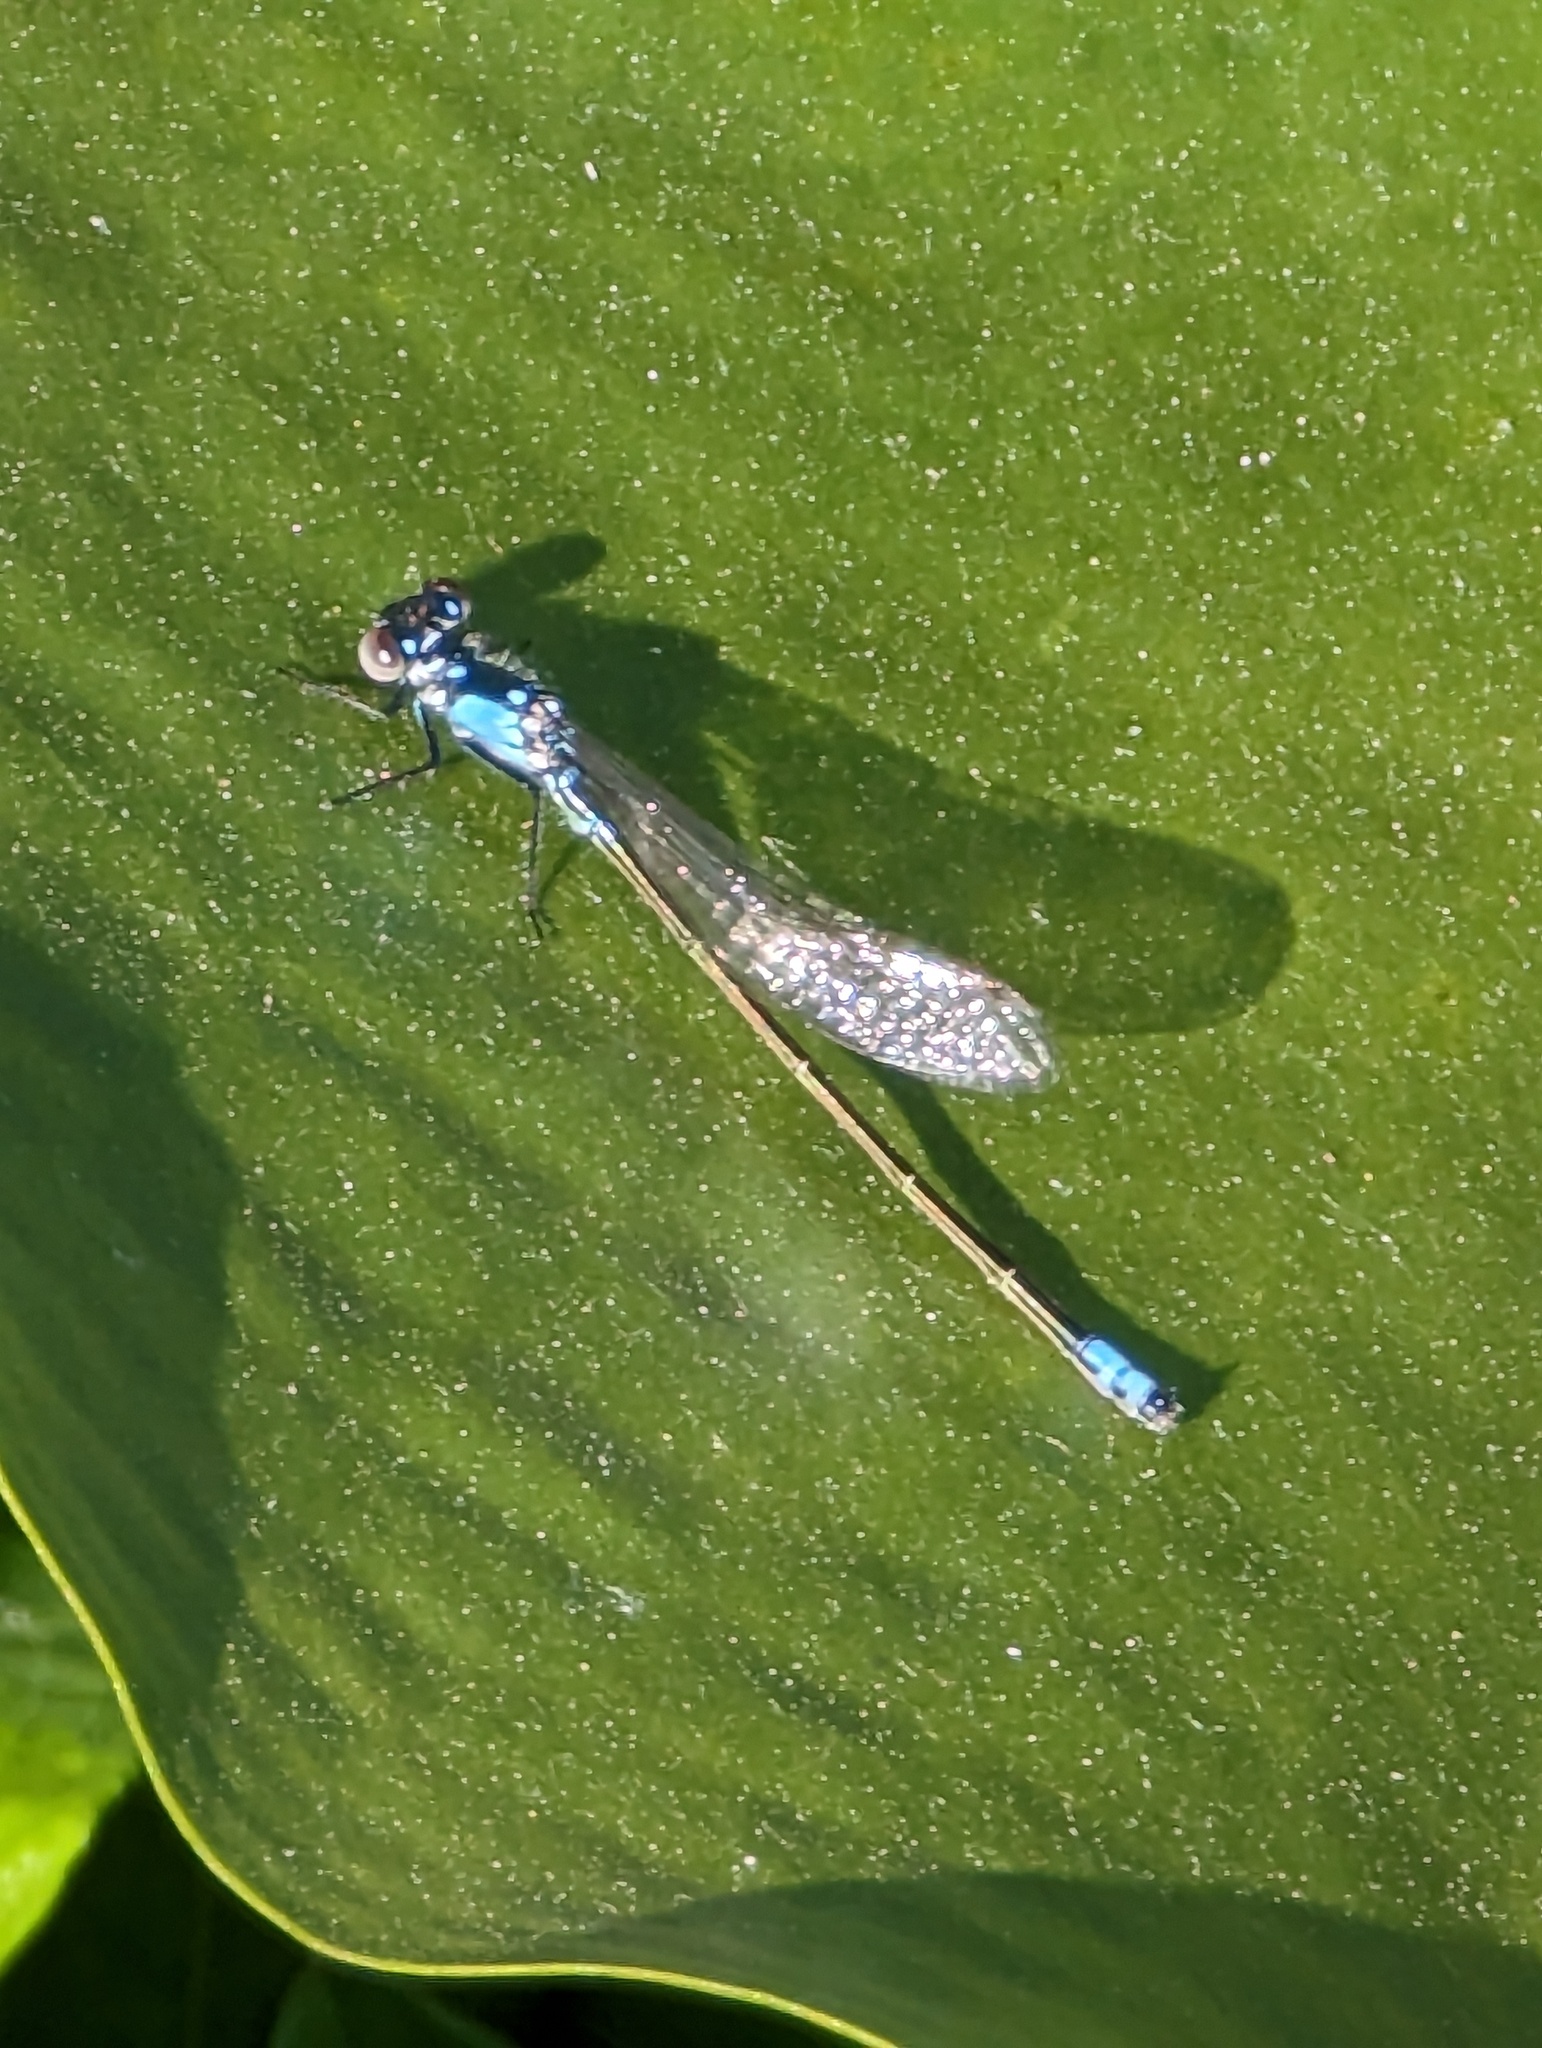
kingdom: Animalia
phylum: Arthropoda
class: Insecta
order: Odonata
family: Coenagrionidae
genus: Ischnura
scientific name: Ischnura cervula
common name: Pacific forktail
